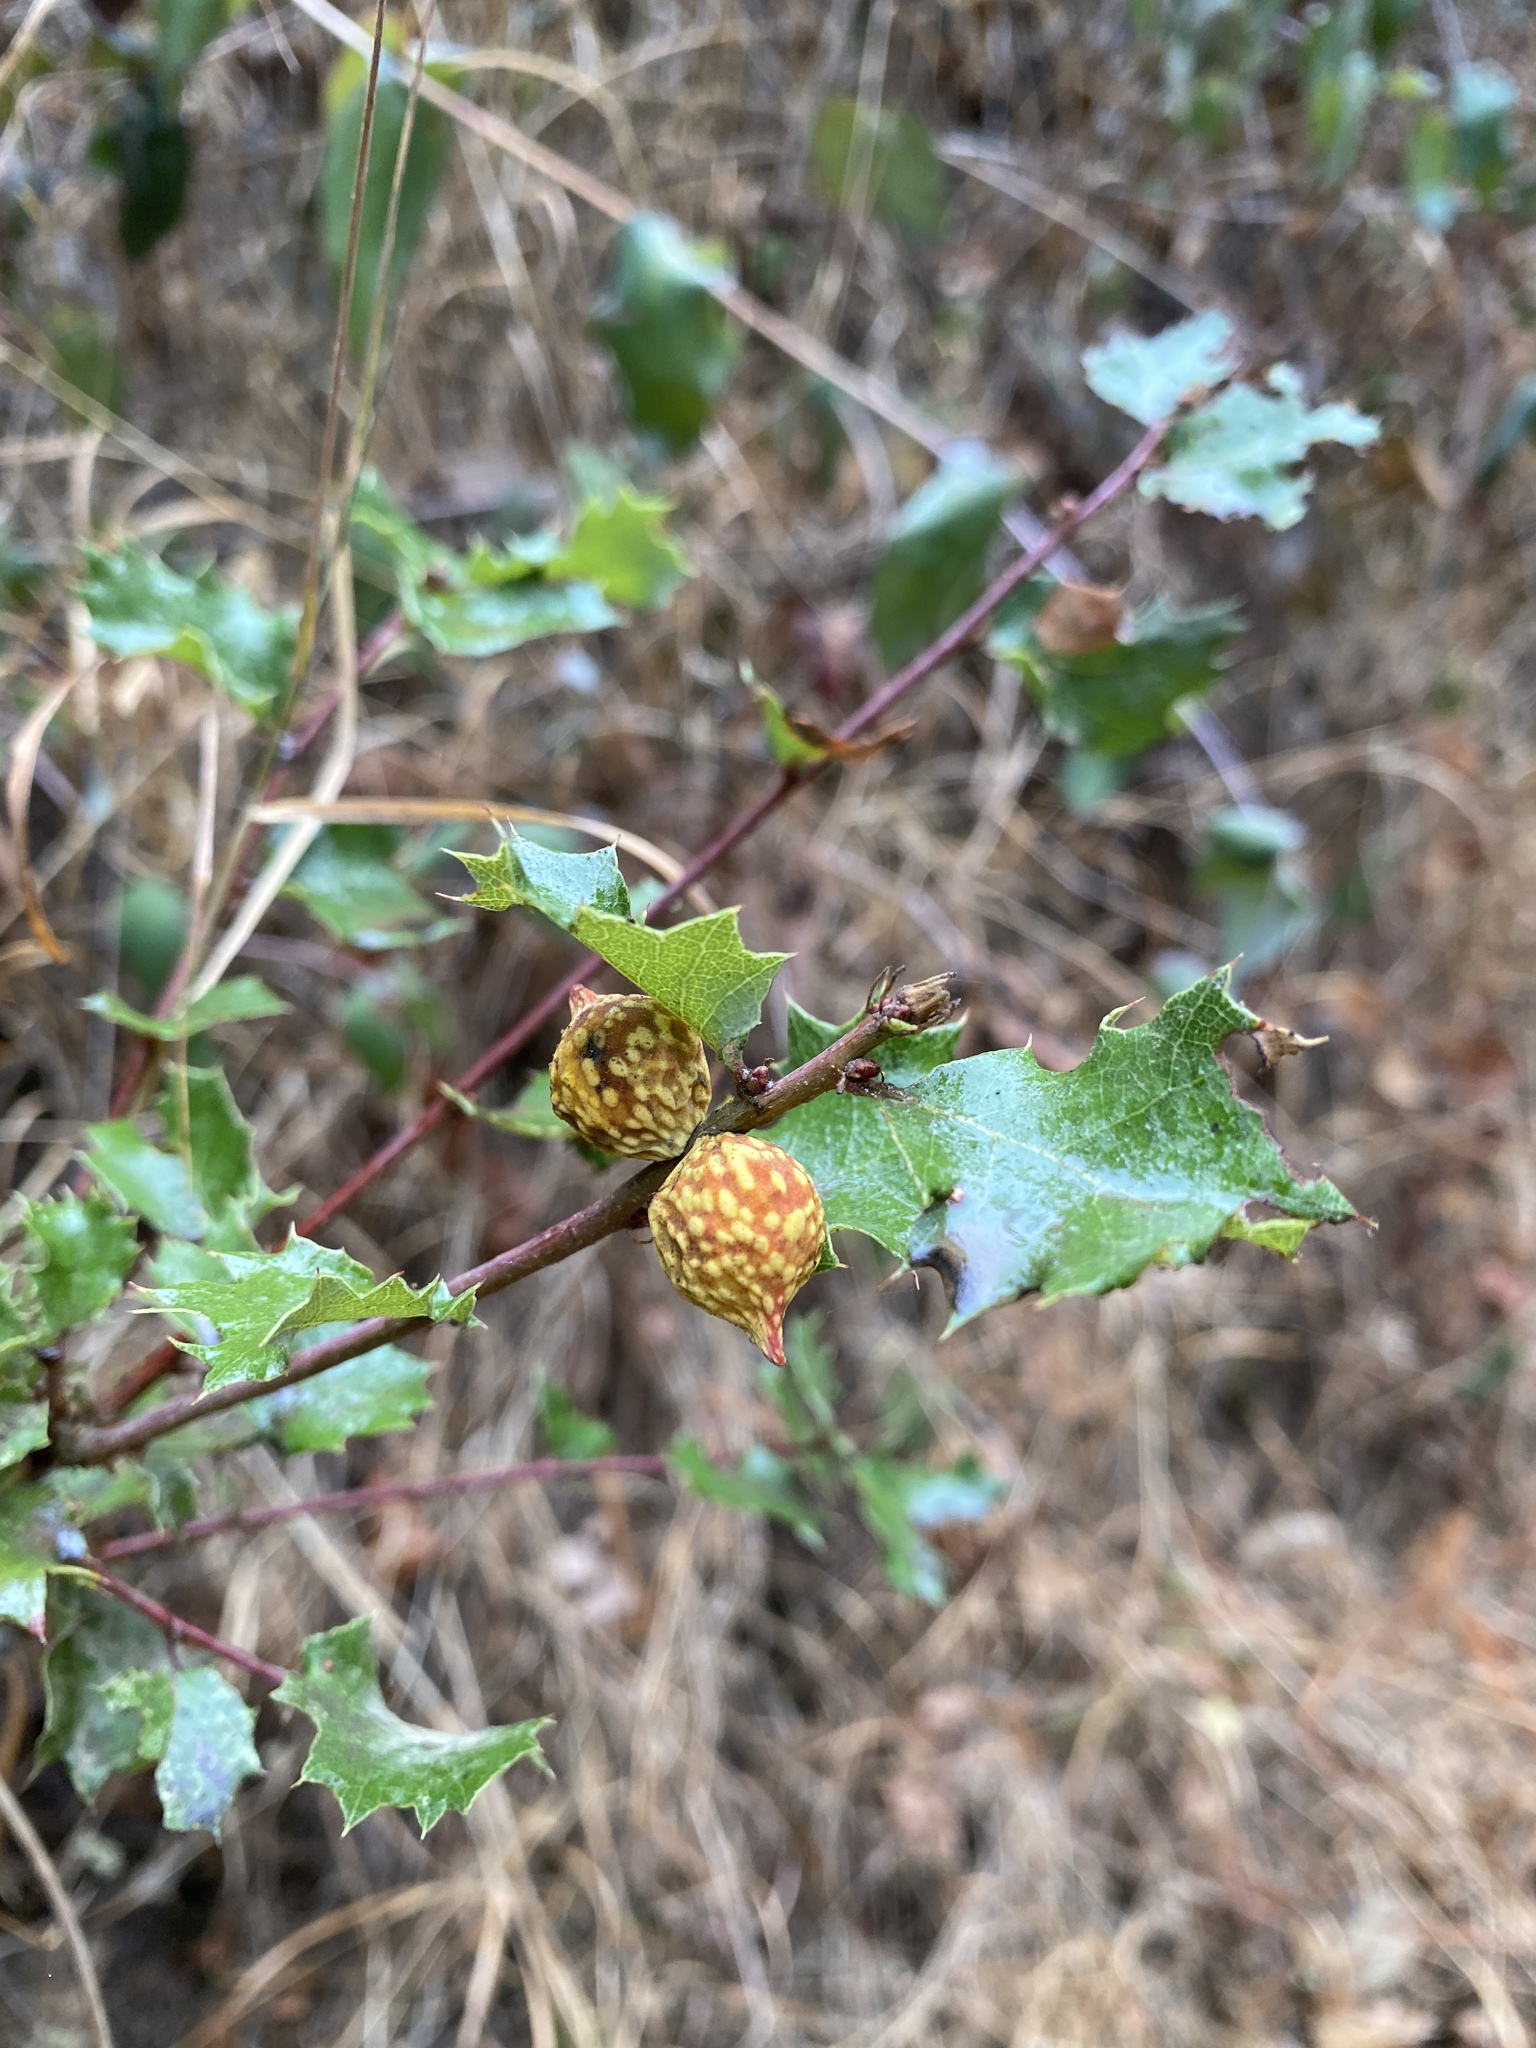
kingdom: Animalia
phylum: Arthropoda
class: Insecta
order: Hymenoptera
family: Cynipidae
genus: Burnettweldia
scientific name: Burnettweldia
